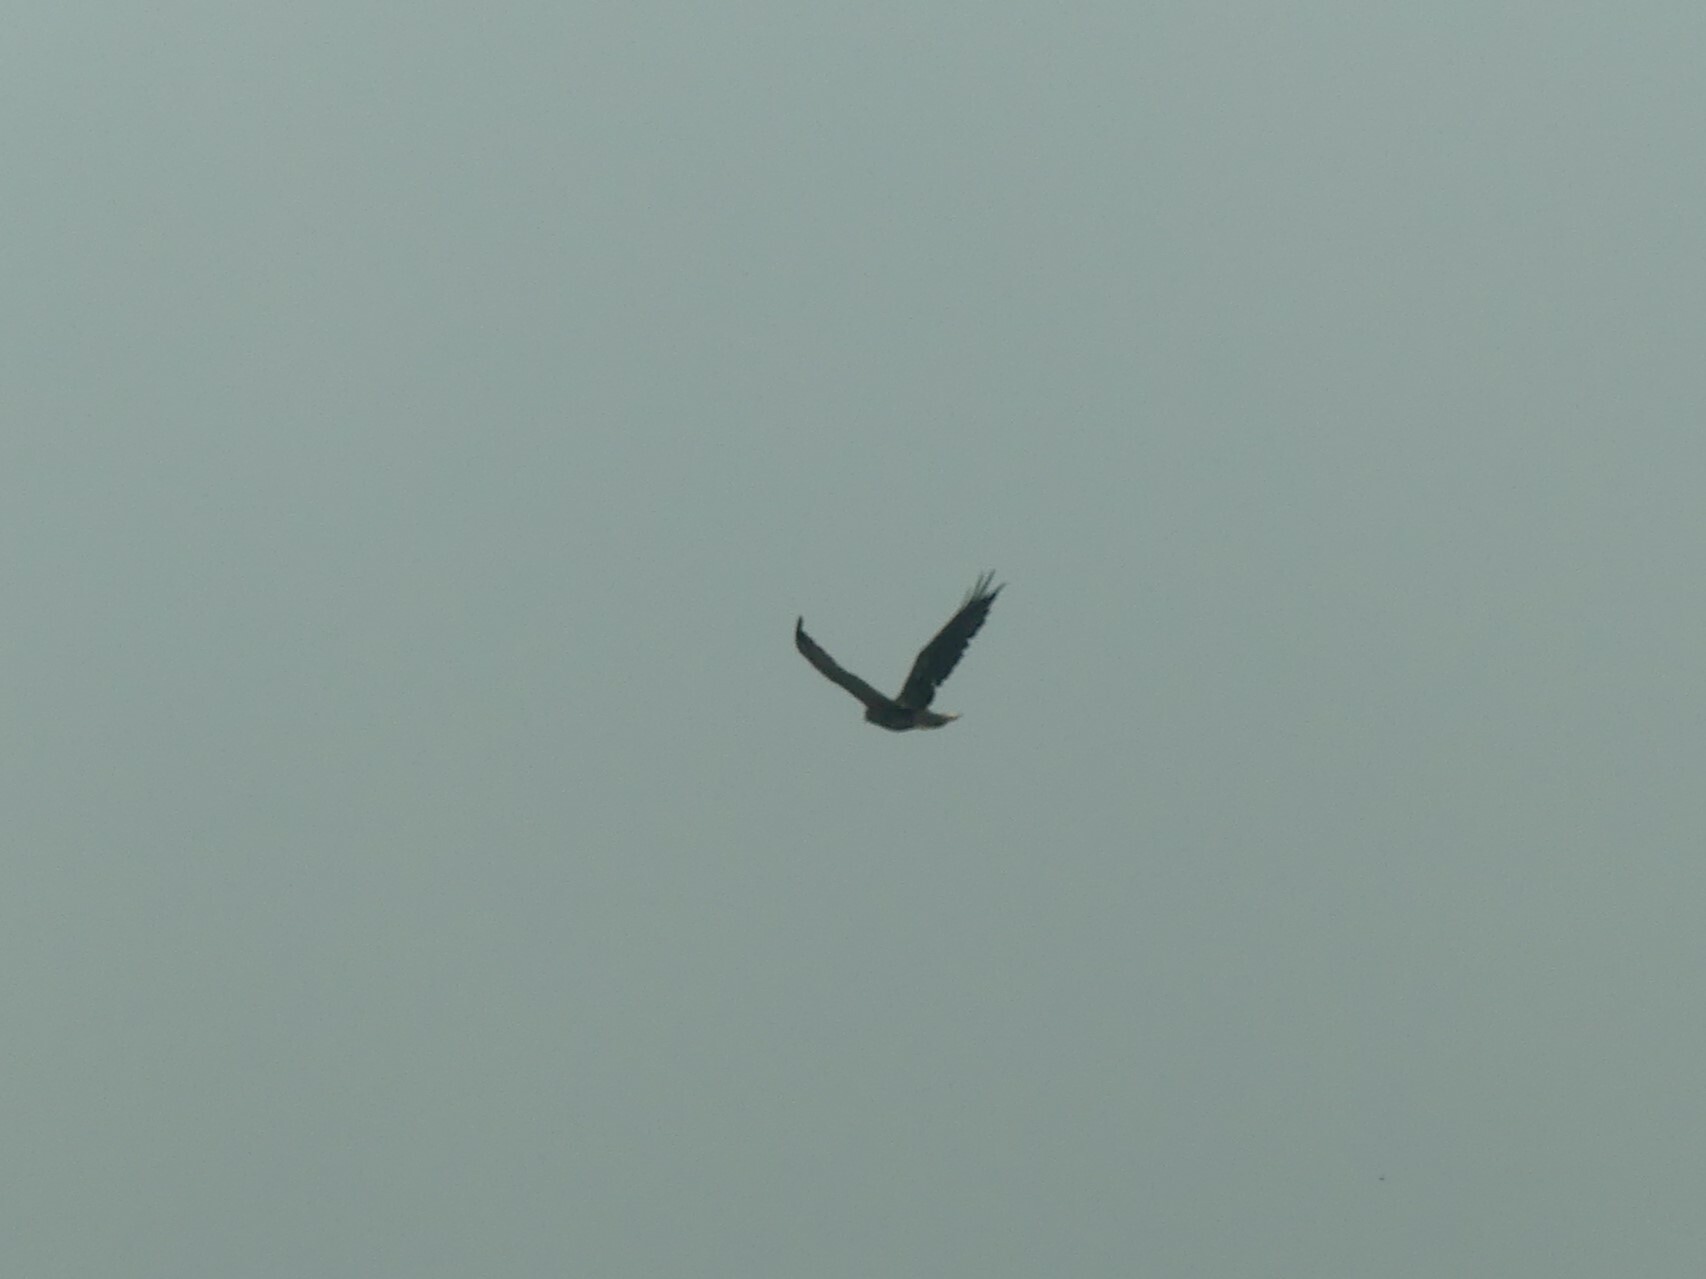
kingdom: Animalia
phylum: Chordata
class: Aves
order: Accipitriformes
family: Accipitridae
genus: Buteo
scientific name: Buteo jamaicensis
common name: Red-tailed hawk
